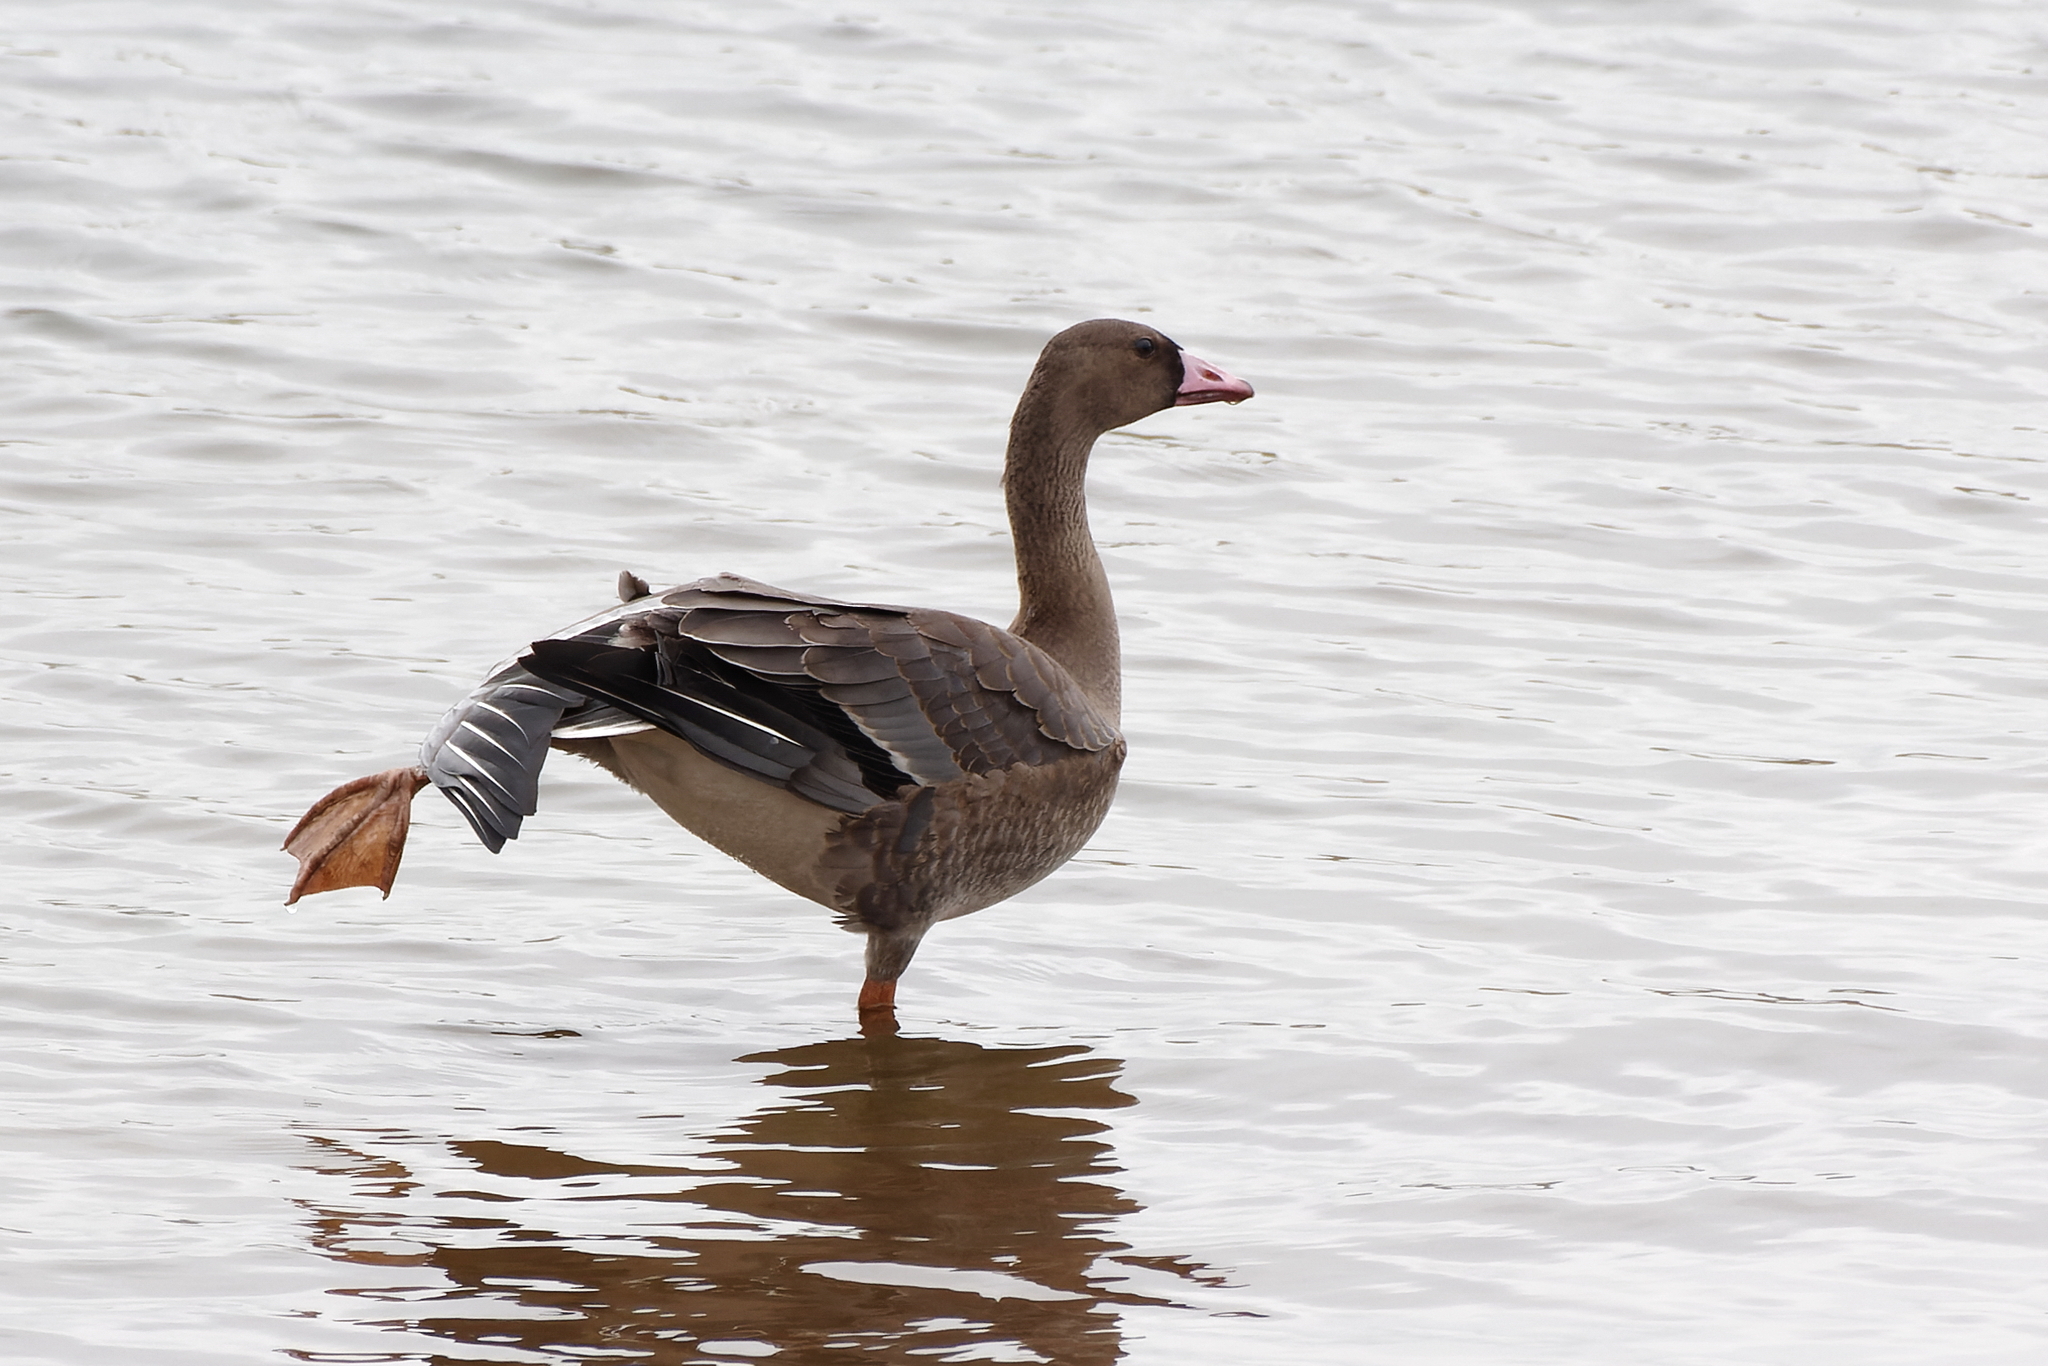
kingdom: Animalia
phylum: Chordata
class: Aves
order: Anseriformes
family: Anatidae
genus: Anser
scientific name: Anser albifrons
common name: Greater white-fronted goose
